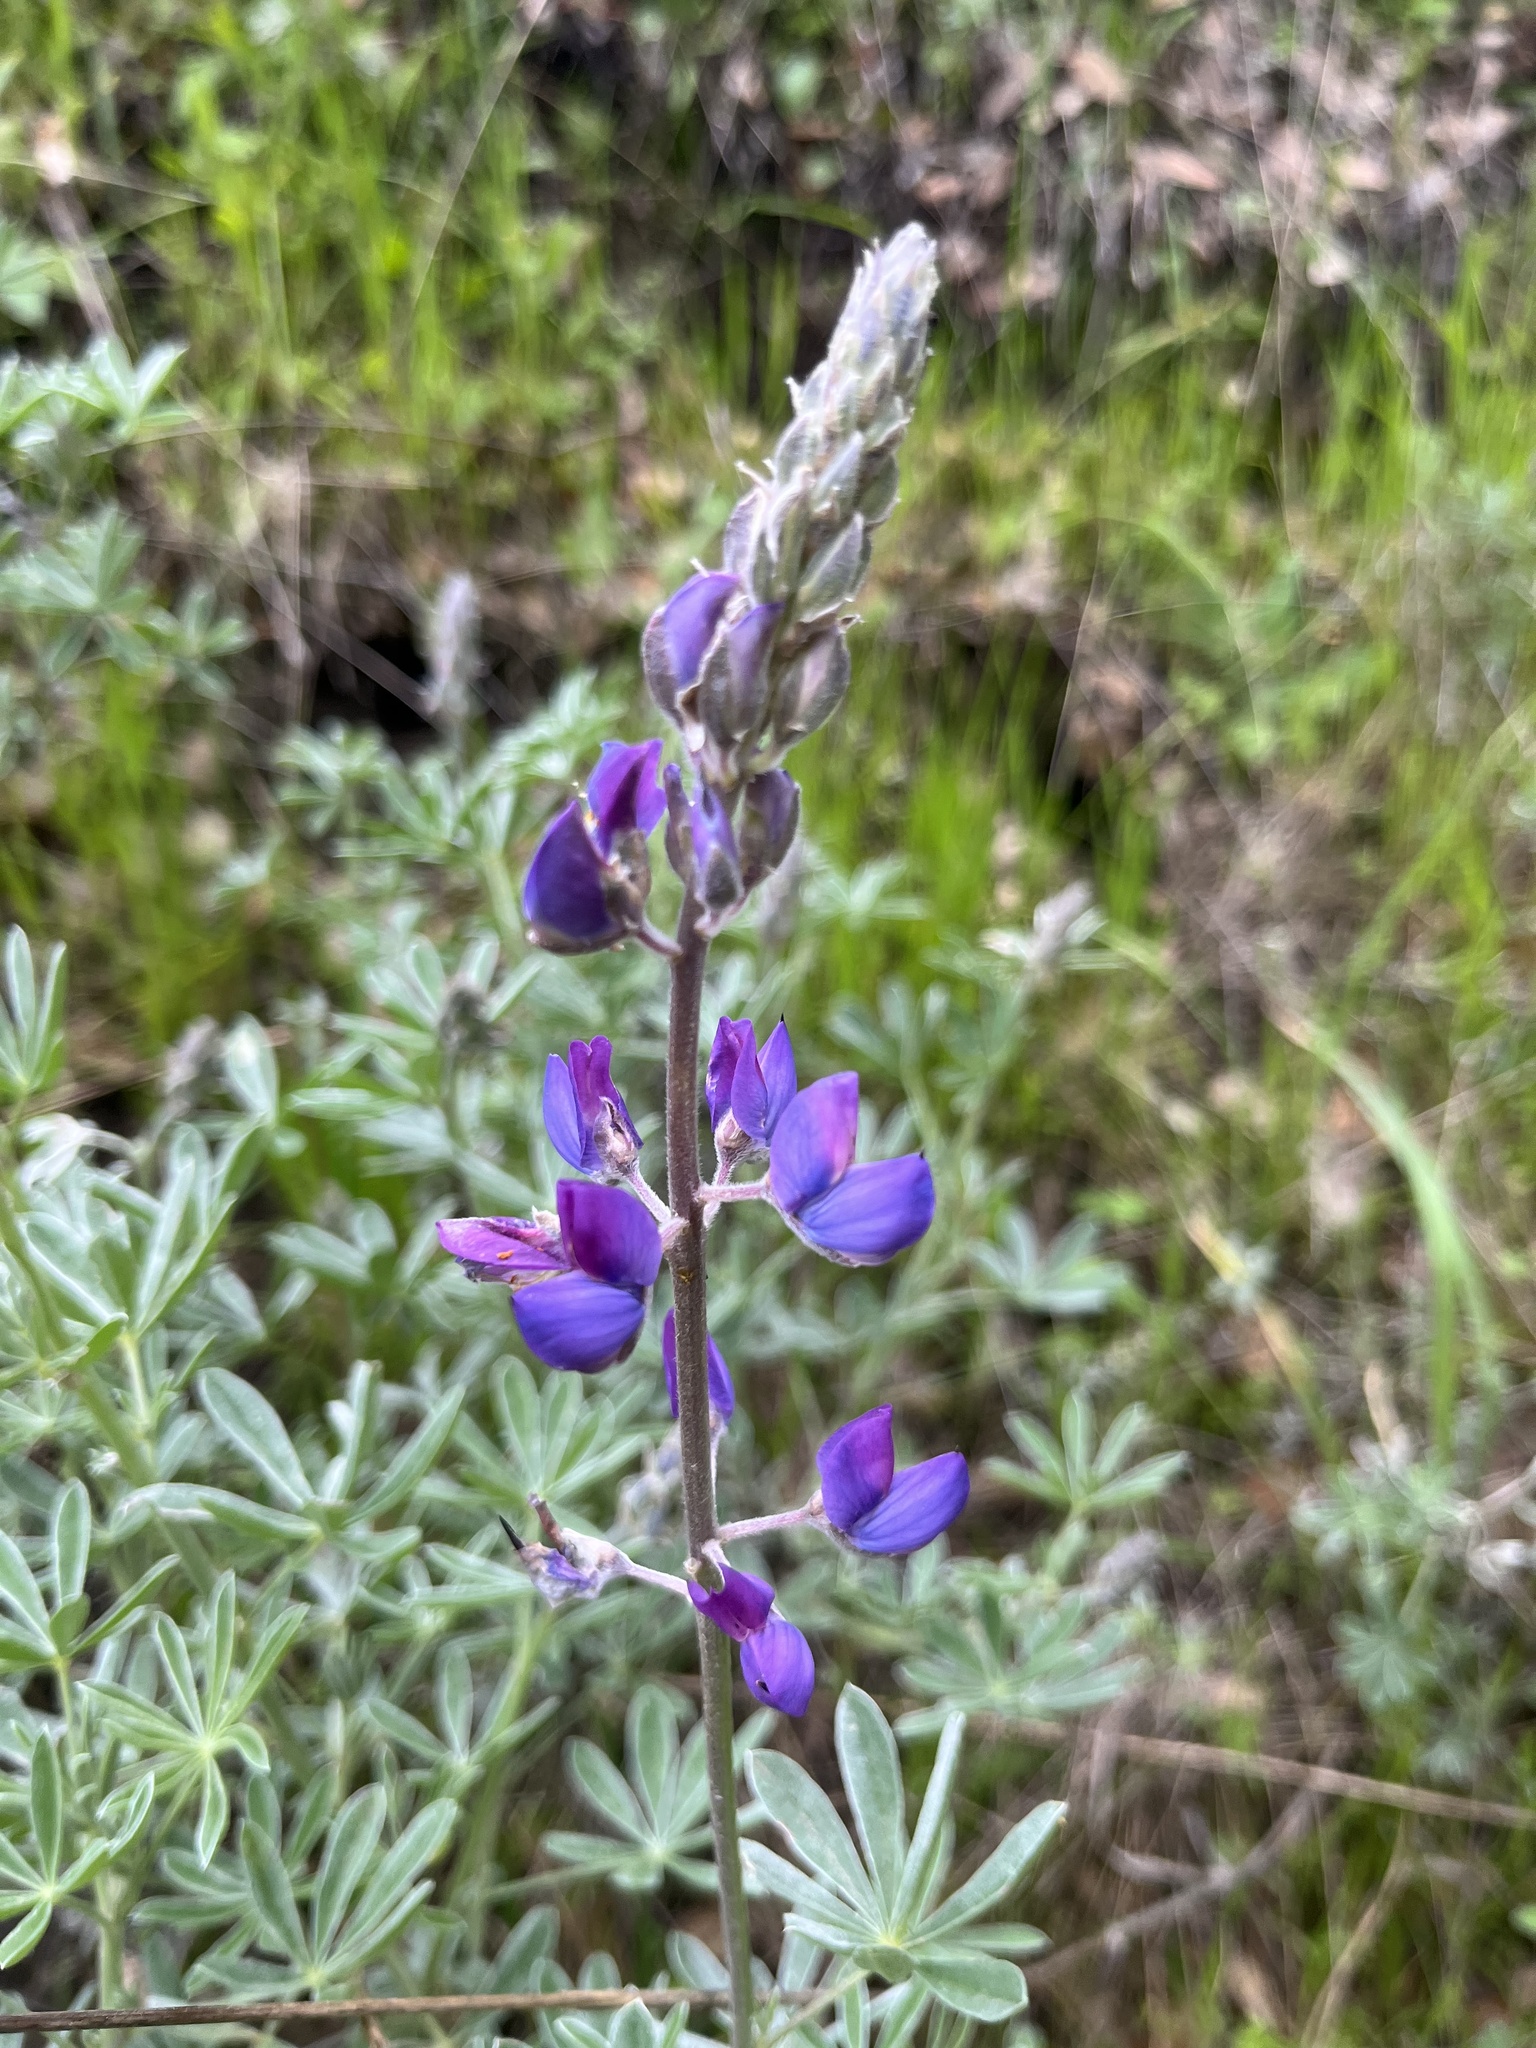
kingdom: Plantae
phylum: Tracheophyta
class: Magnoliopsida
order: Fabales
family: Fabaceae
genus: Lupinus
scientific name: Lupinus albifrons
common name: Foothill lupine
